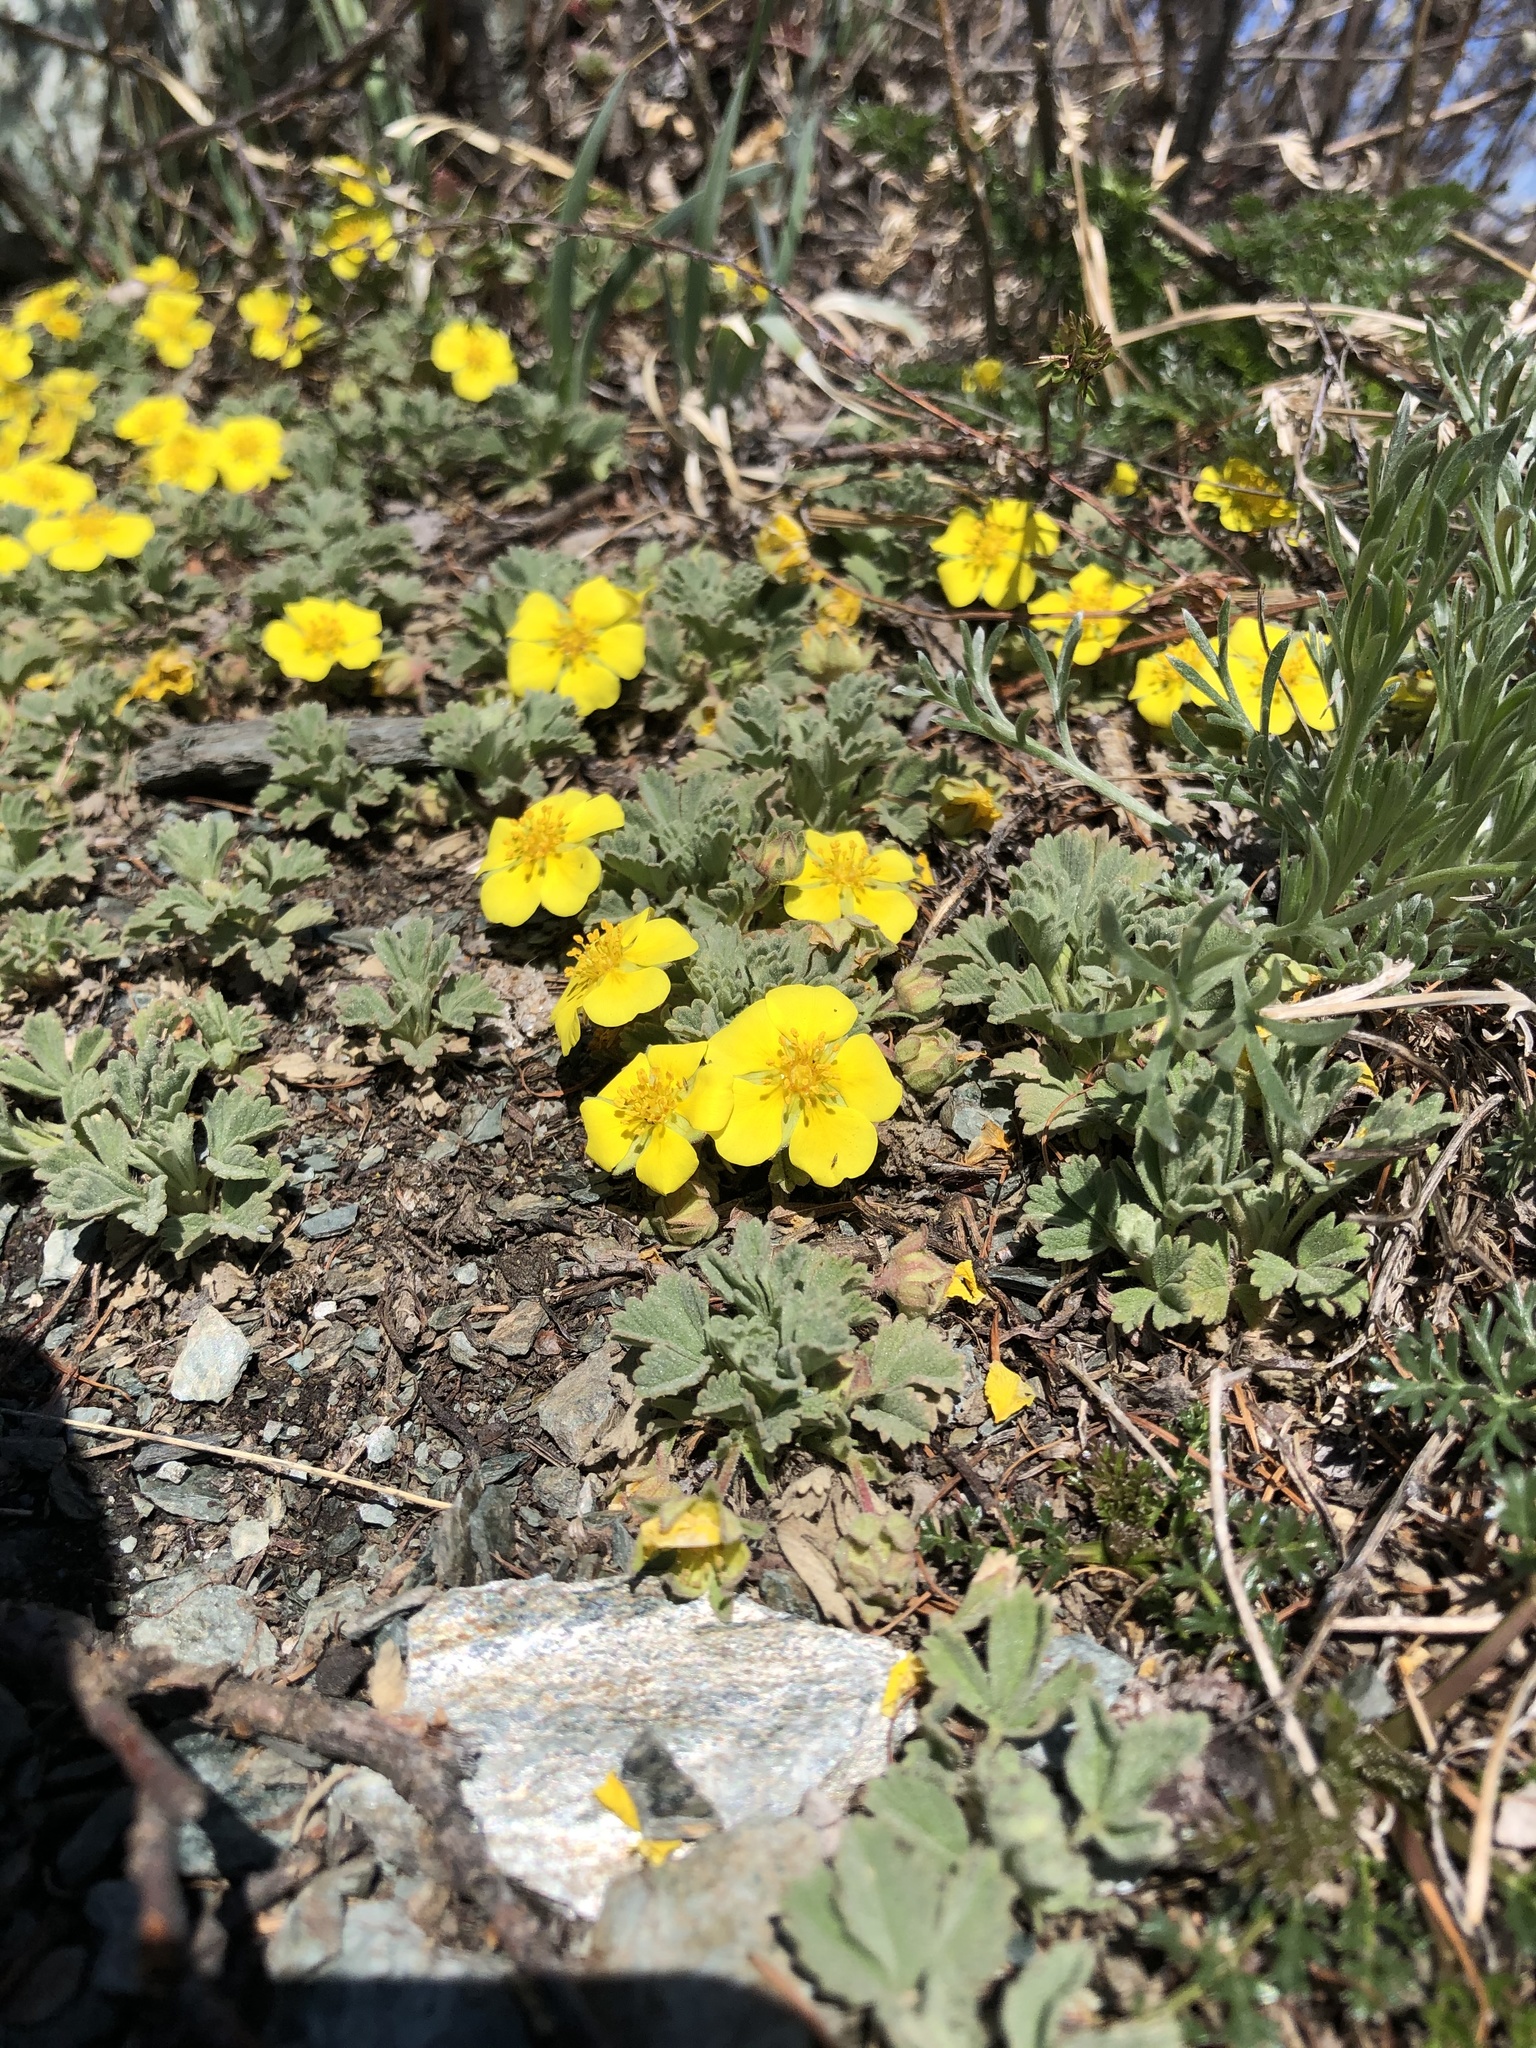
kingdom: Plantae
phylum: Tracheophyta
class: Magnoliopsida
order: Rosales
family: Rosaceae
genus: Potentilla
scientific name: Potentilla acaulis
